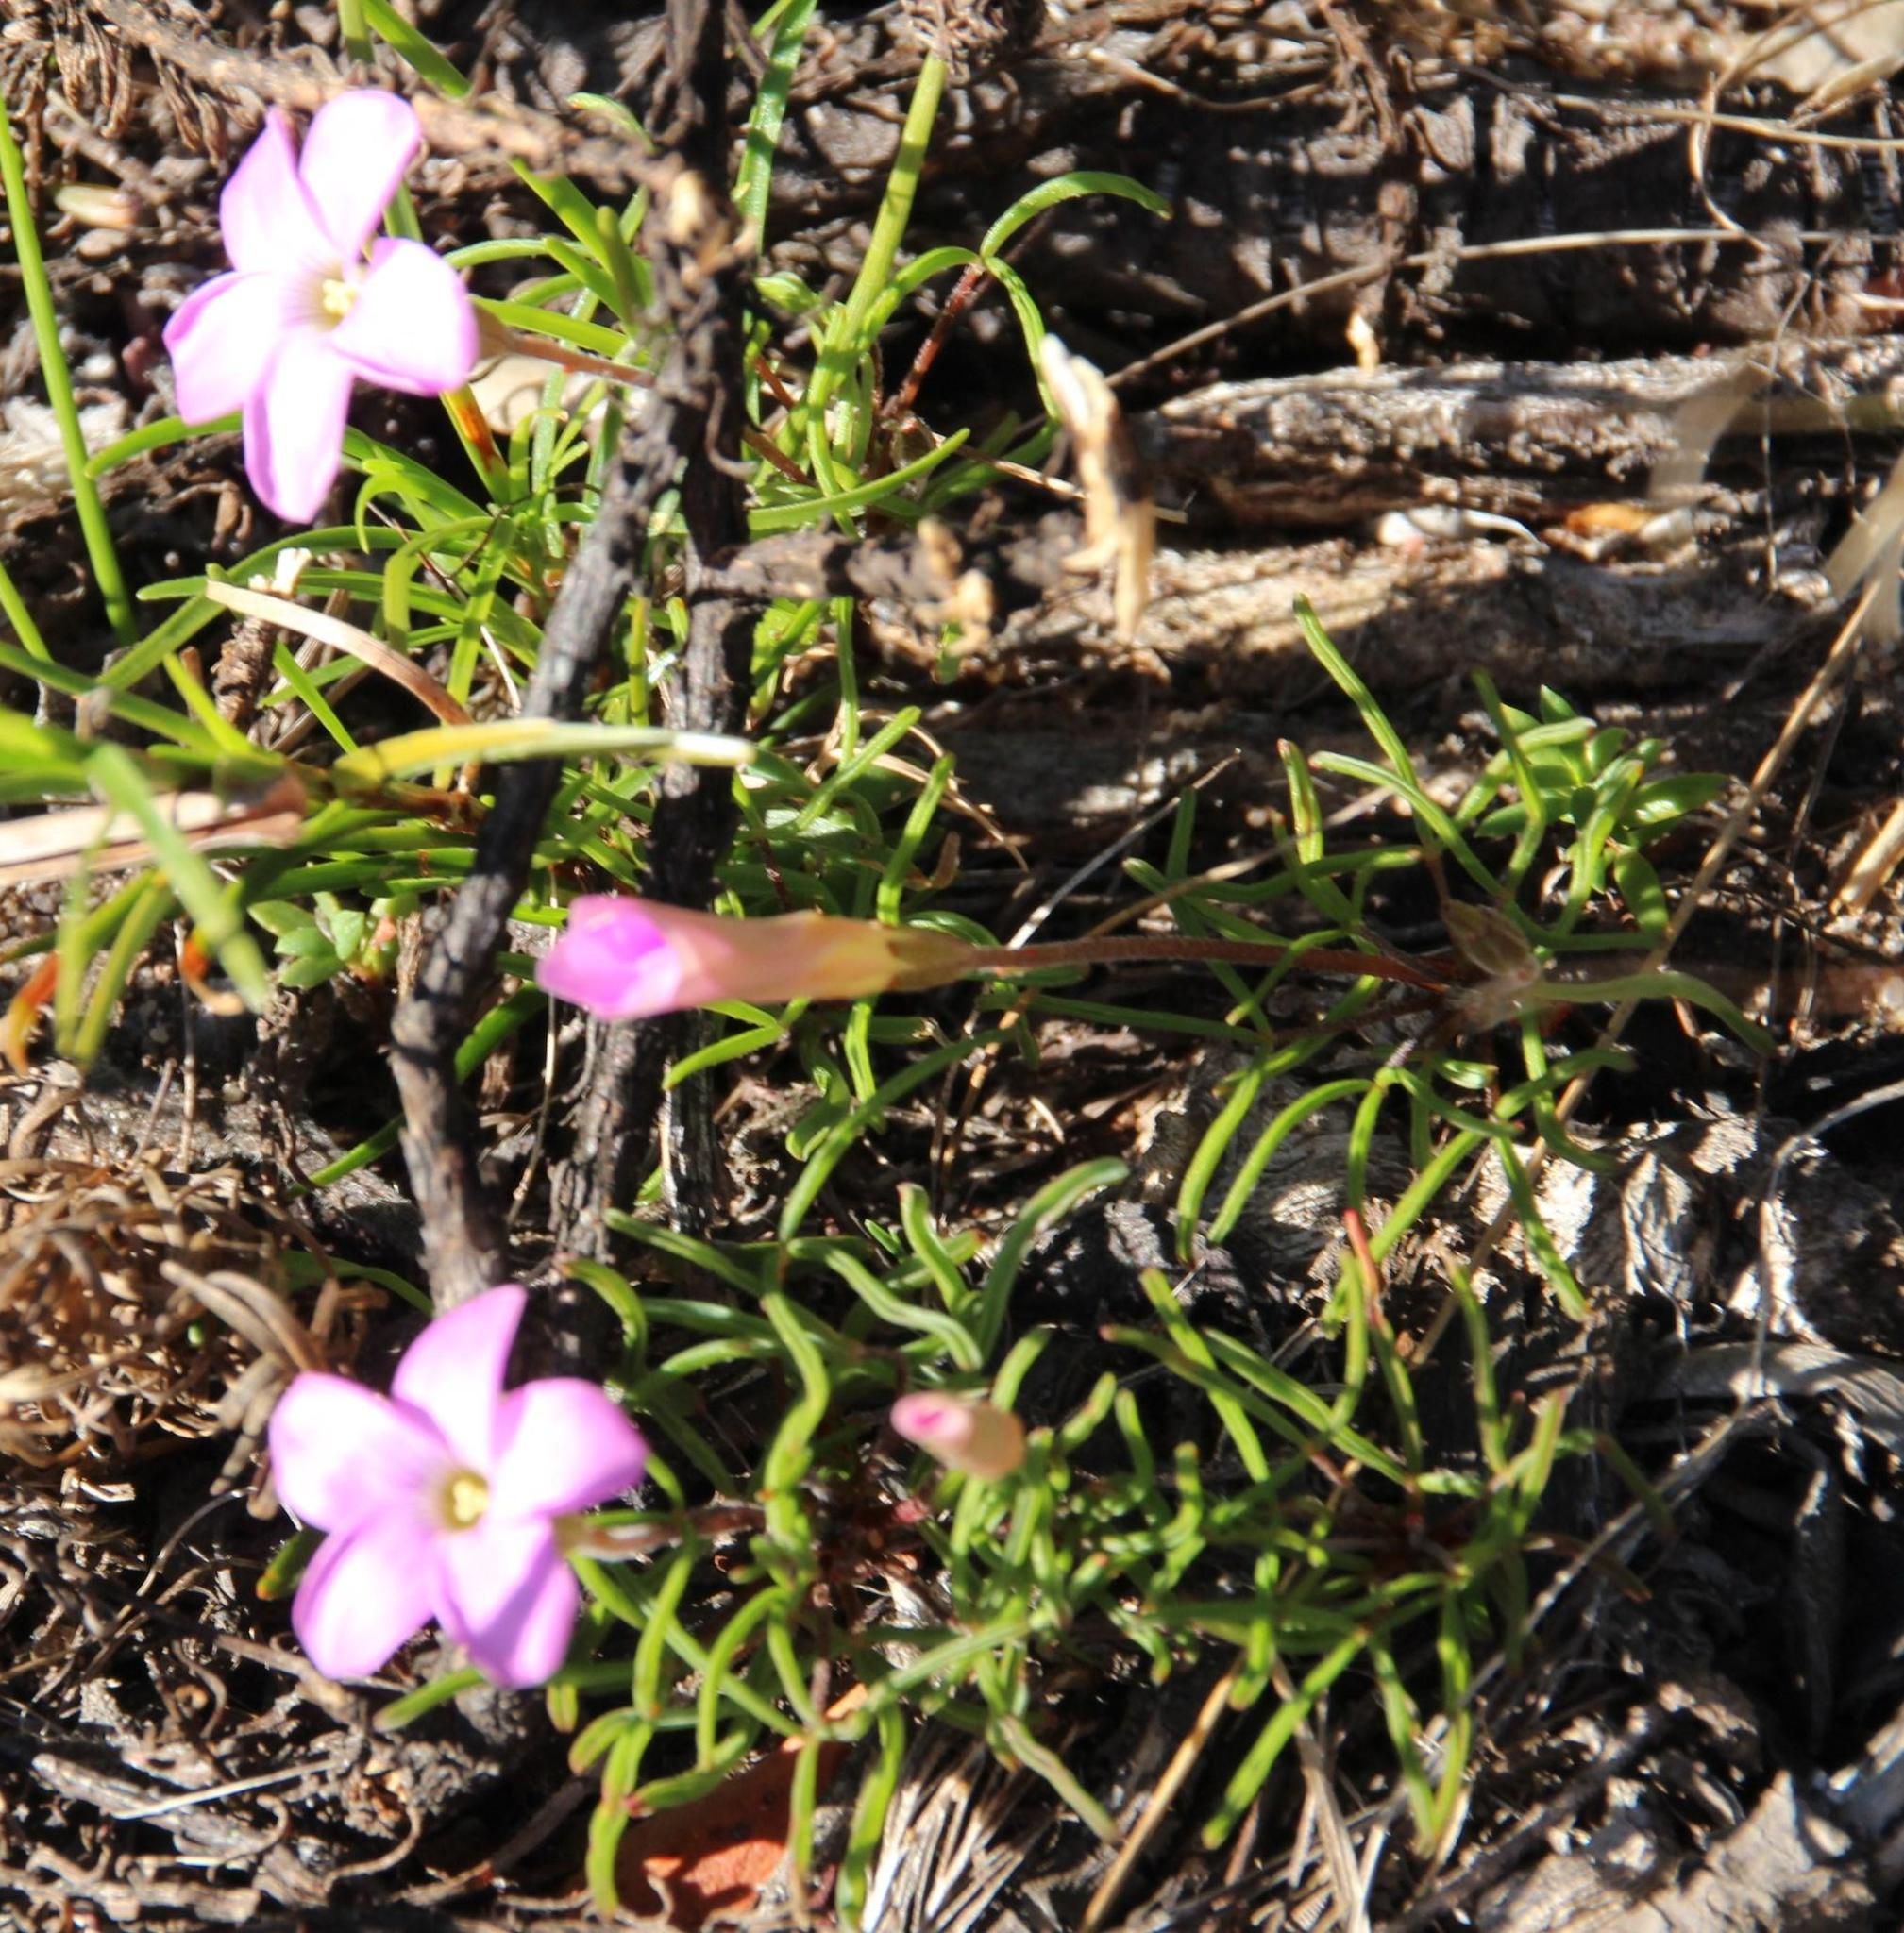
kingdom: Plantae
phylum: Tracheophyta
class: Magnoliopsida
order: Oxalidales
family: Oxalidaceae
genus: Oxalis
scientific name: Oxalis polyphylla
